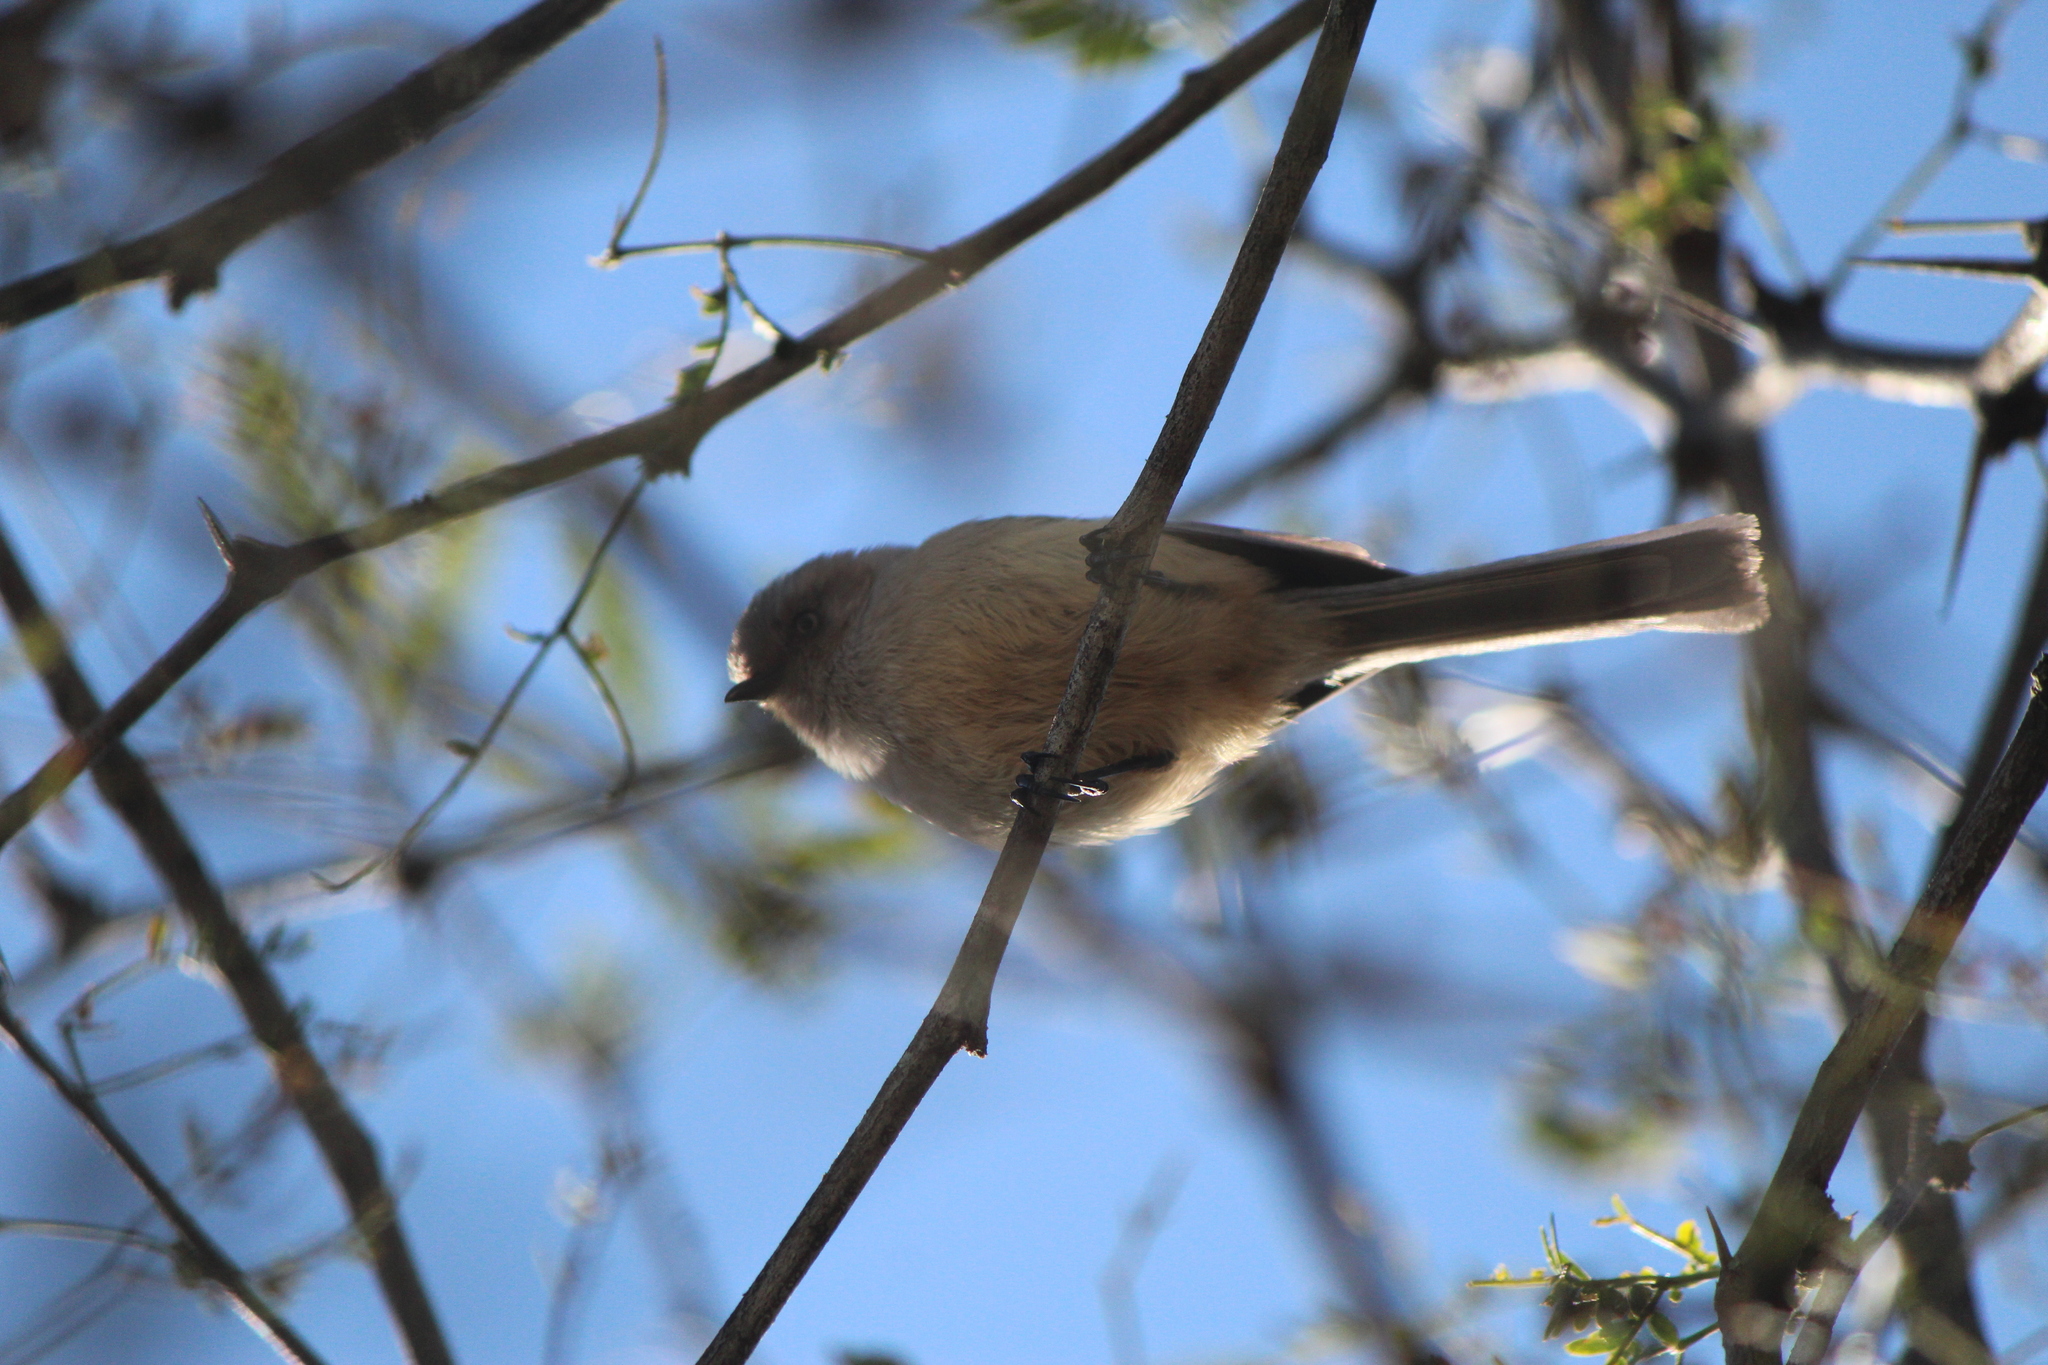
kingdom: Animalia
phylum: Chordata
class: Aves
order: Passeriformes
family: Aegithalidae
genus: Psaltriparus
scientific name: Psaltriparus minimus
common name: American bushtit
